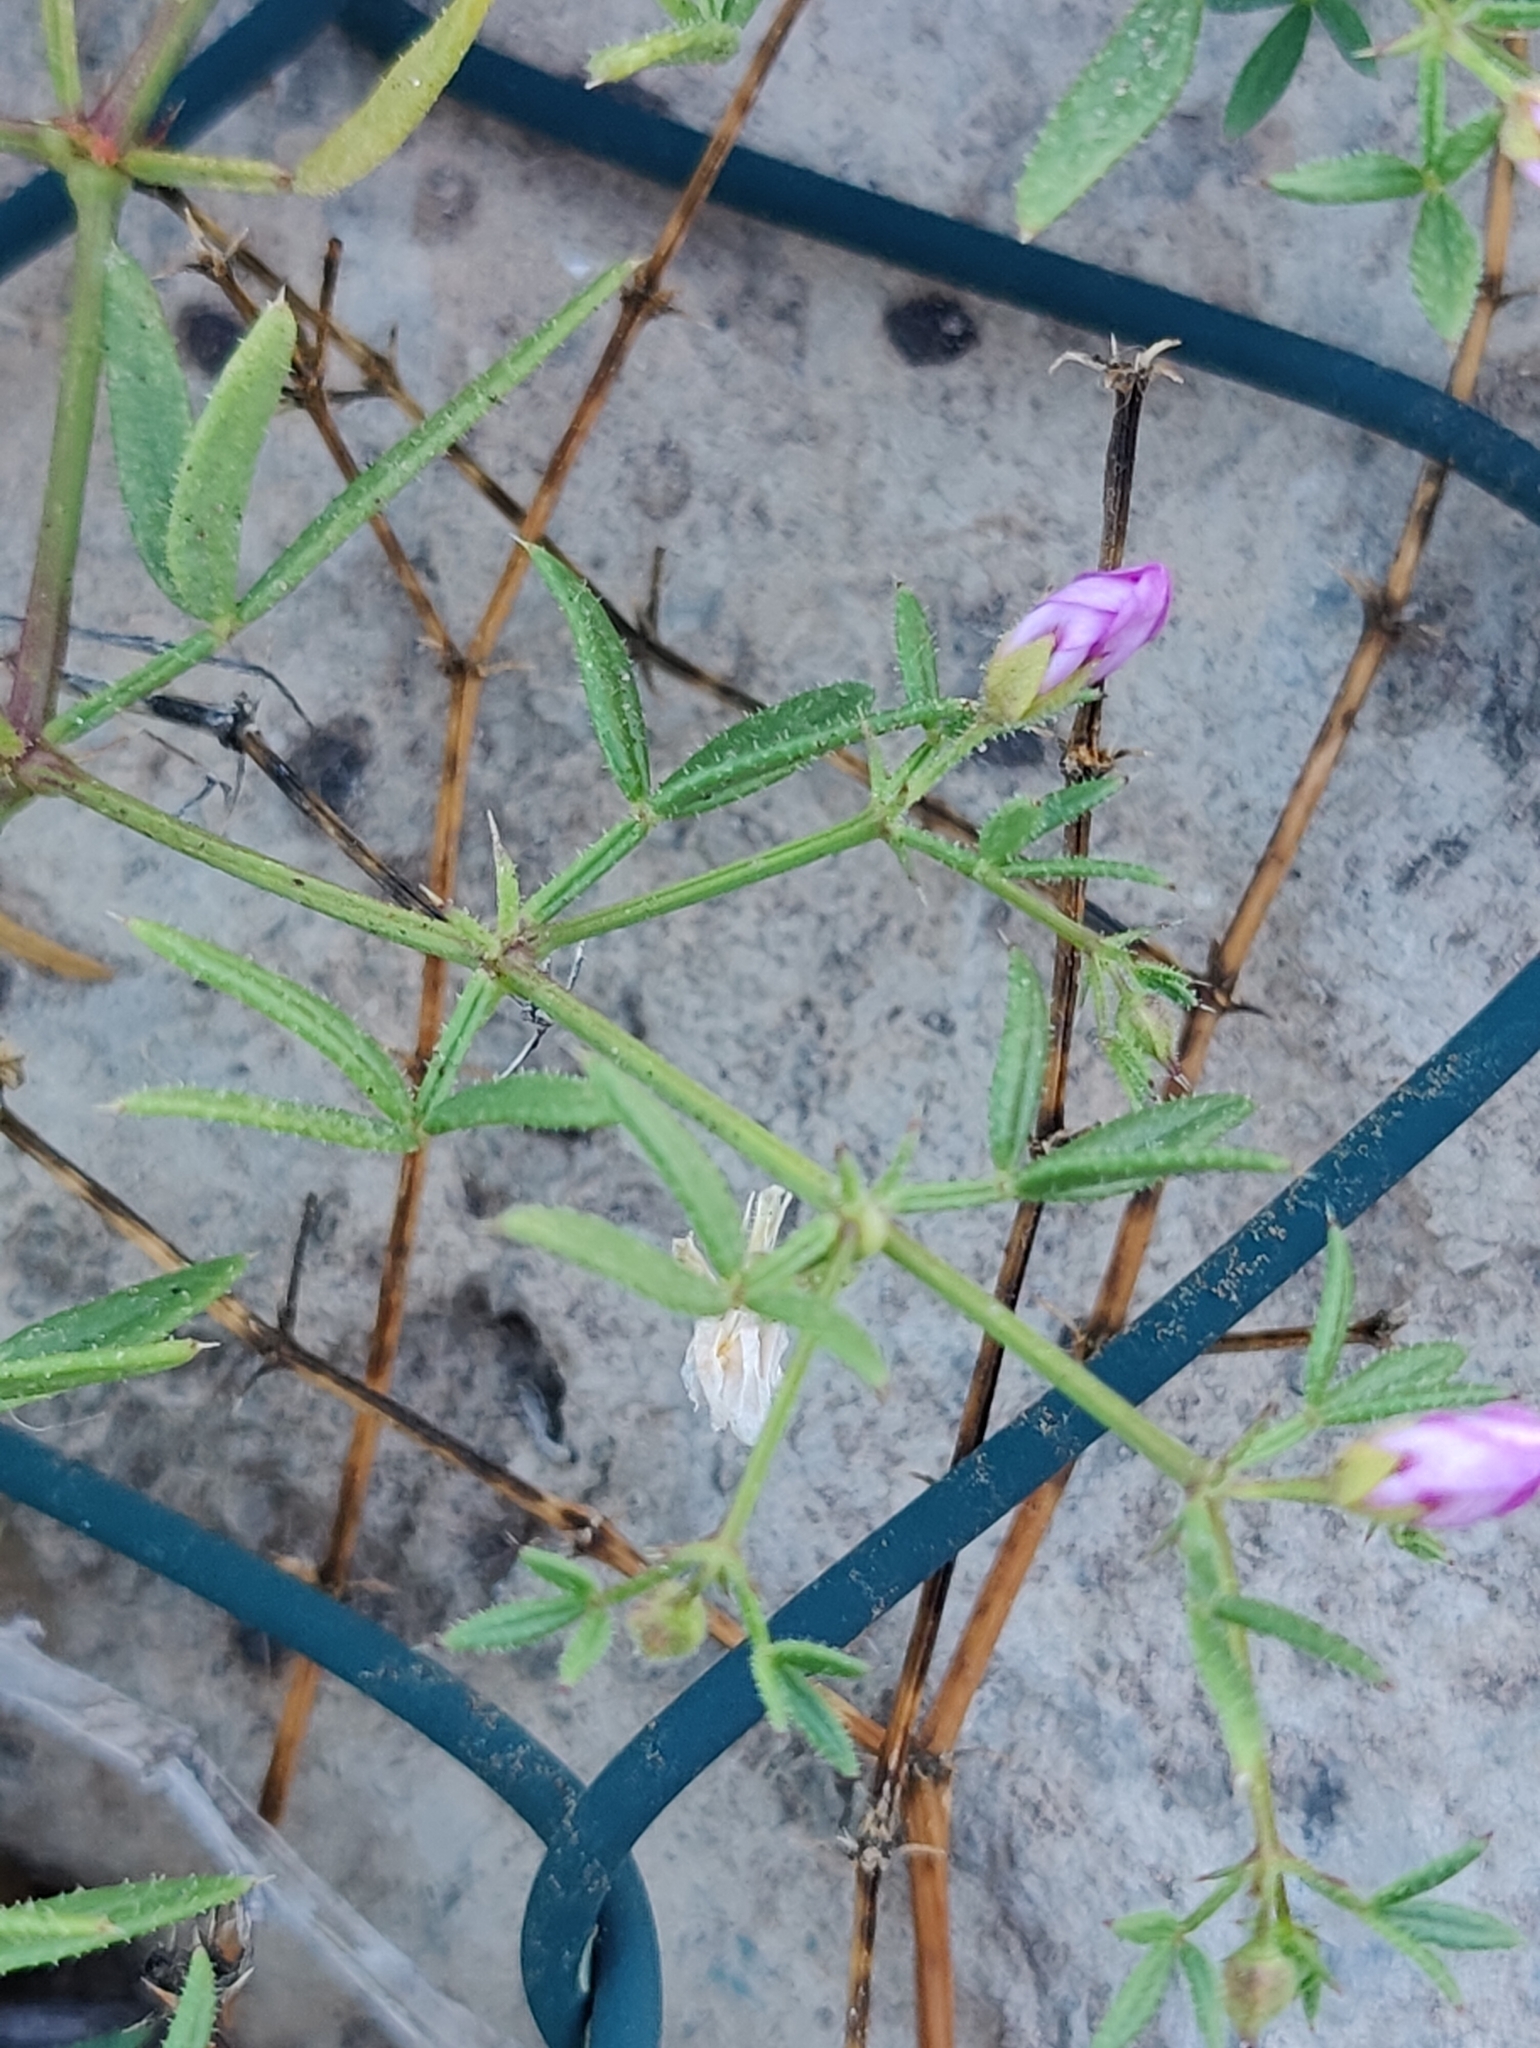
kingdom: Plantae
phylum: Tracheophyta
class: Magnoliopsida
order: Zygophyllales
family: Zygophyllaceae
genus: Fagonia
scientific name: Fagonia cretica
